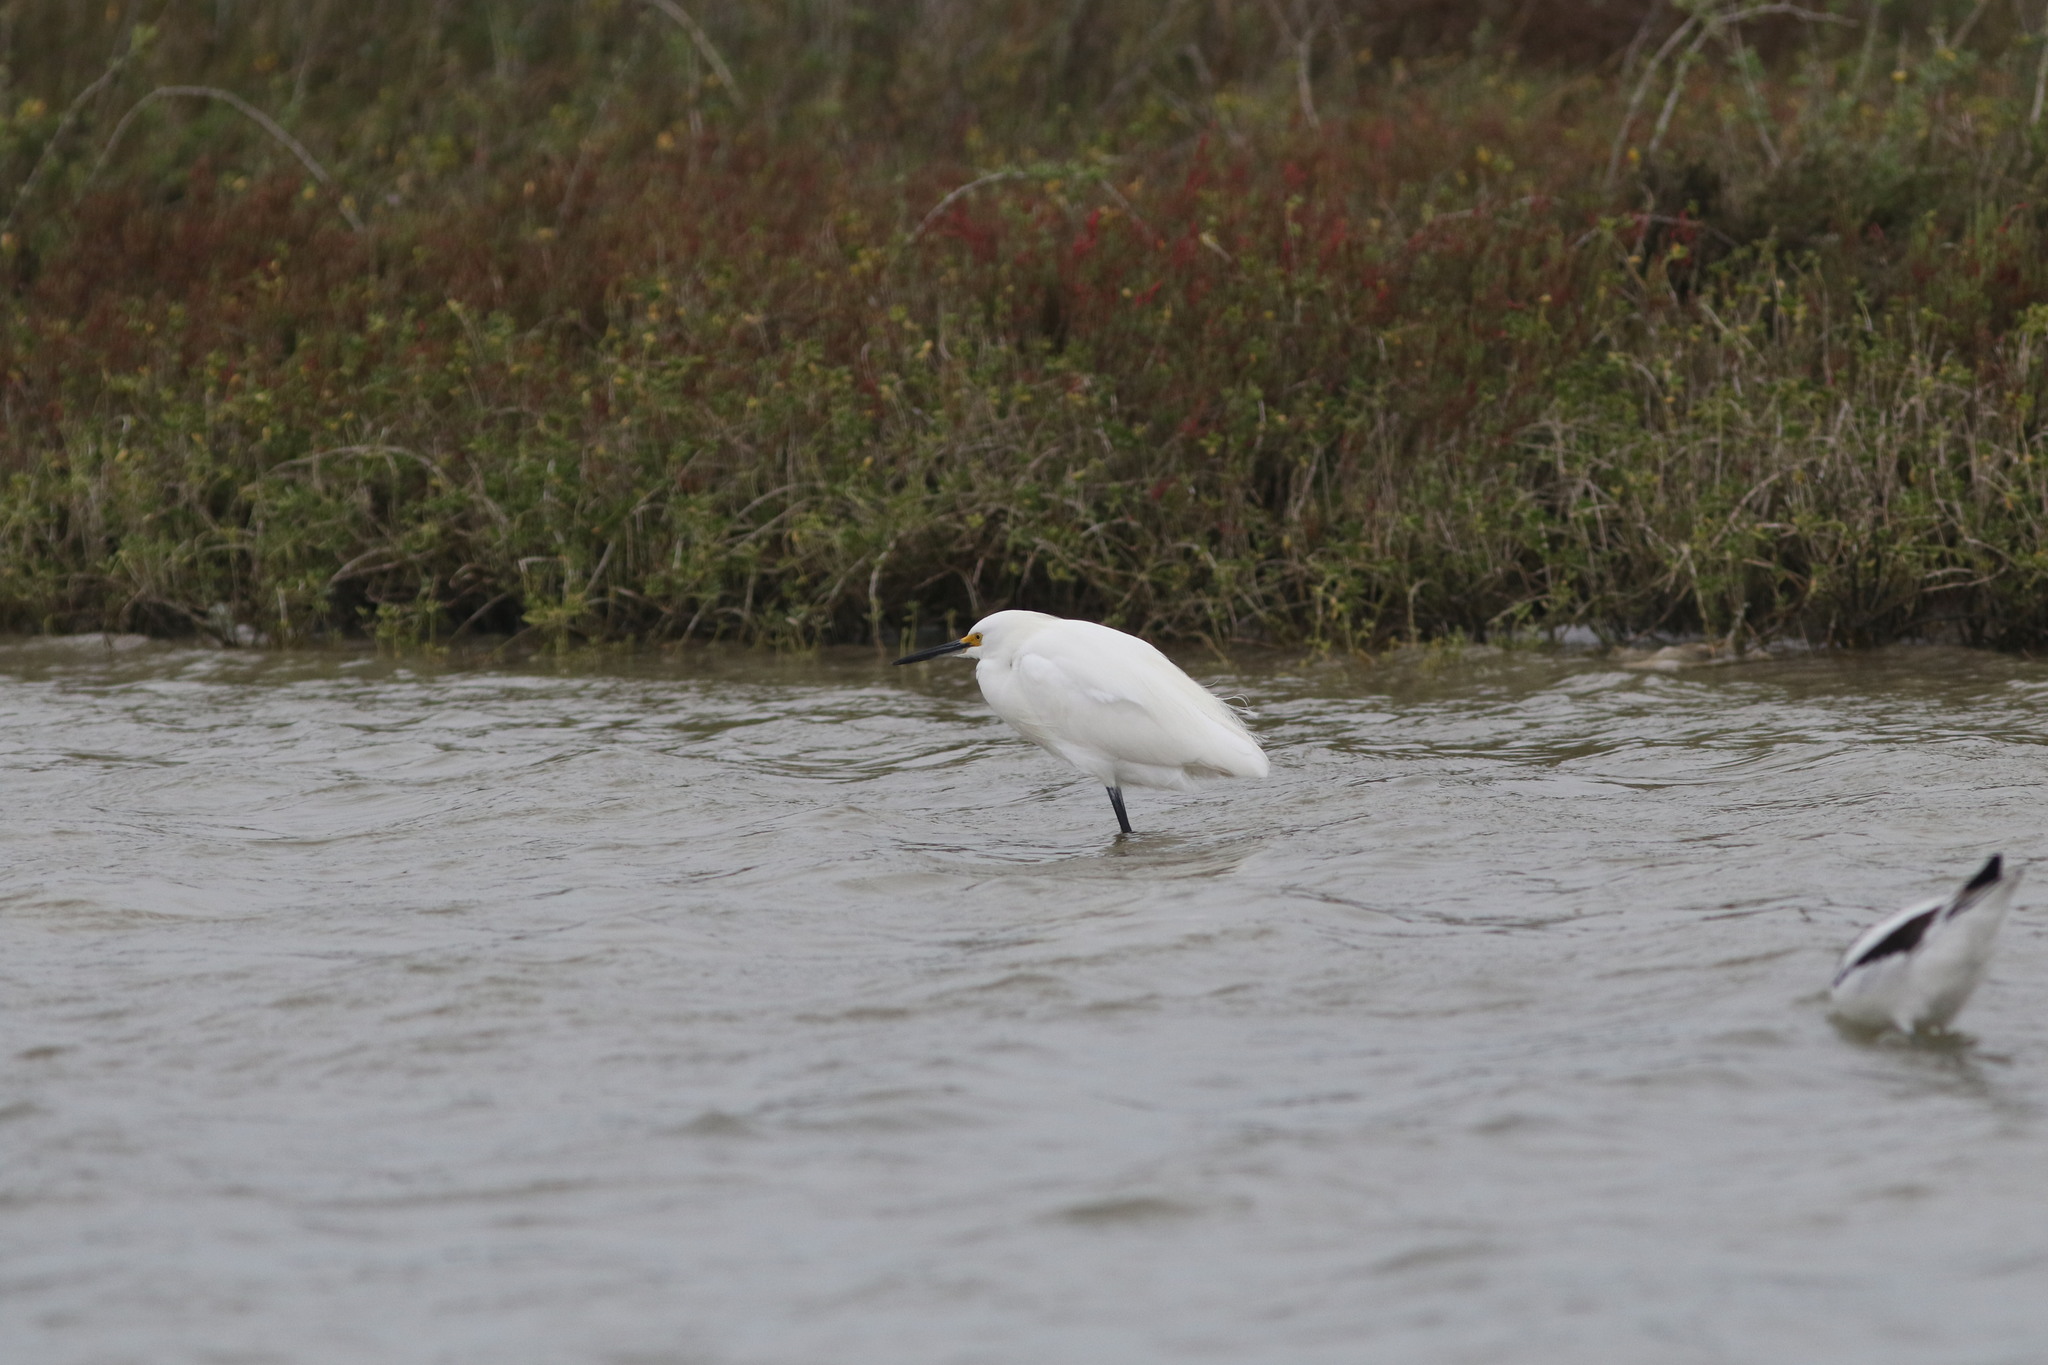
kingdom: Animalia
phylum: Chordata
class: Aves
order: Pelecaniformes
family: Ardeidae
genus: Egretta
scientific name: Egretta thula
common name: Snowy egret
